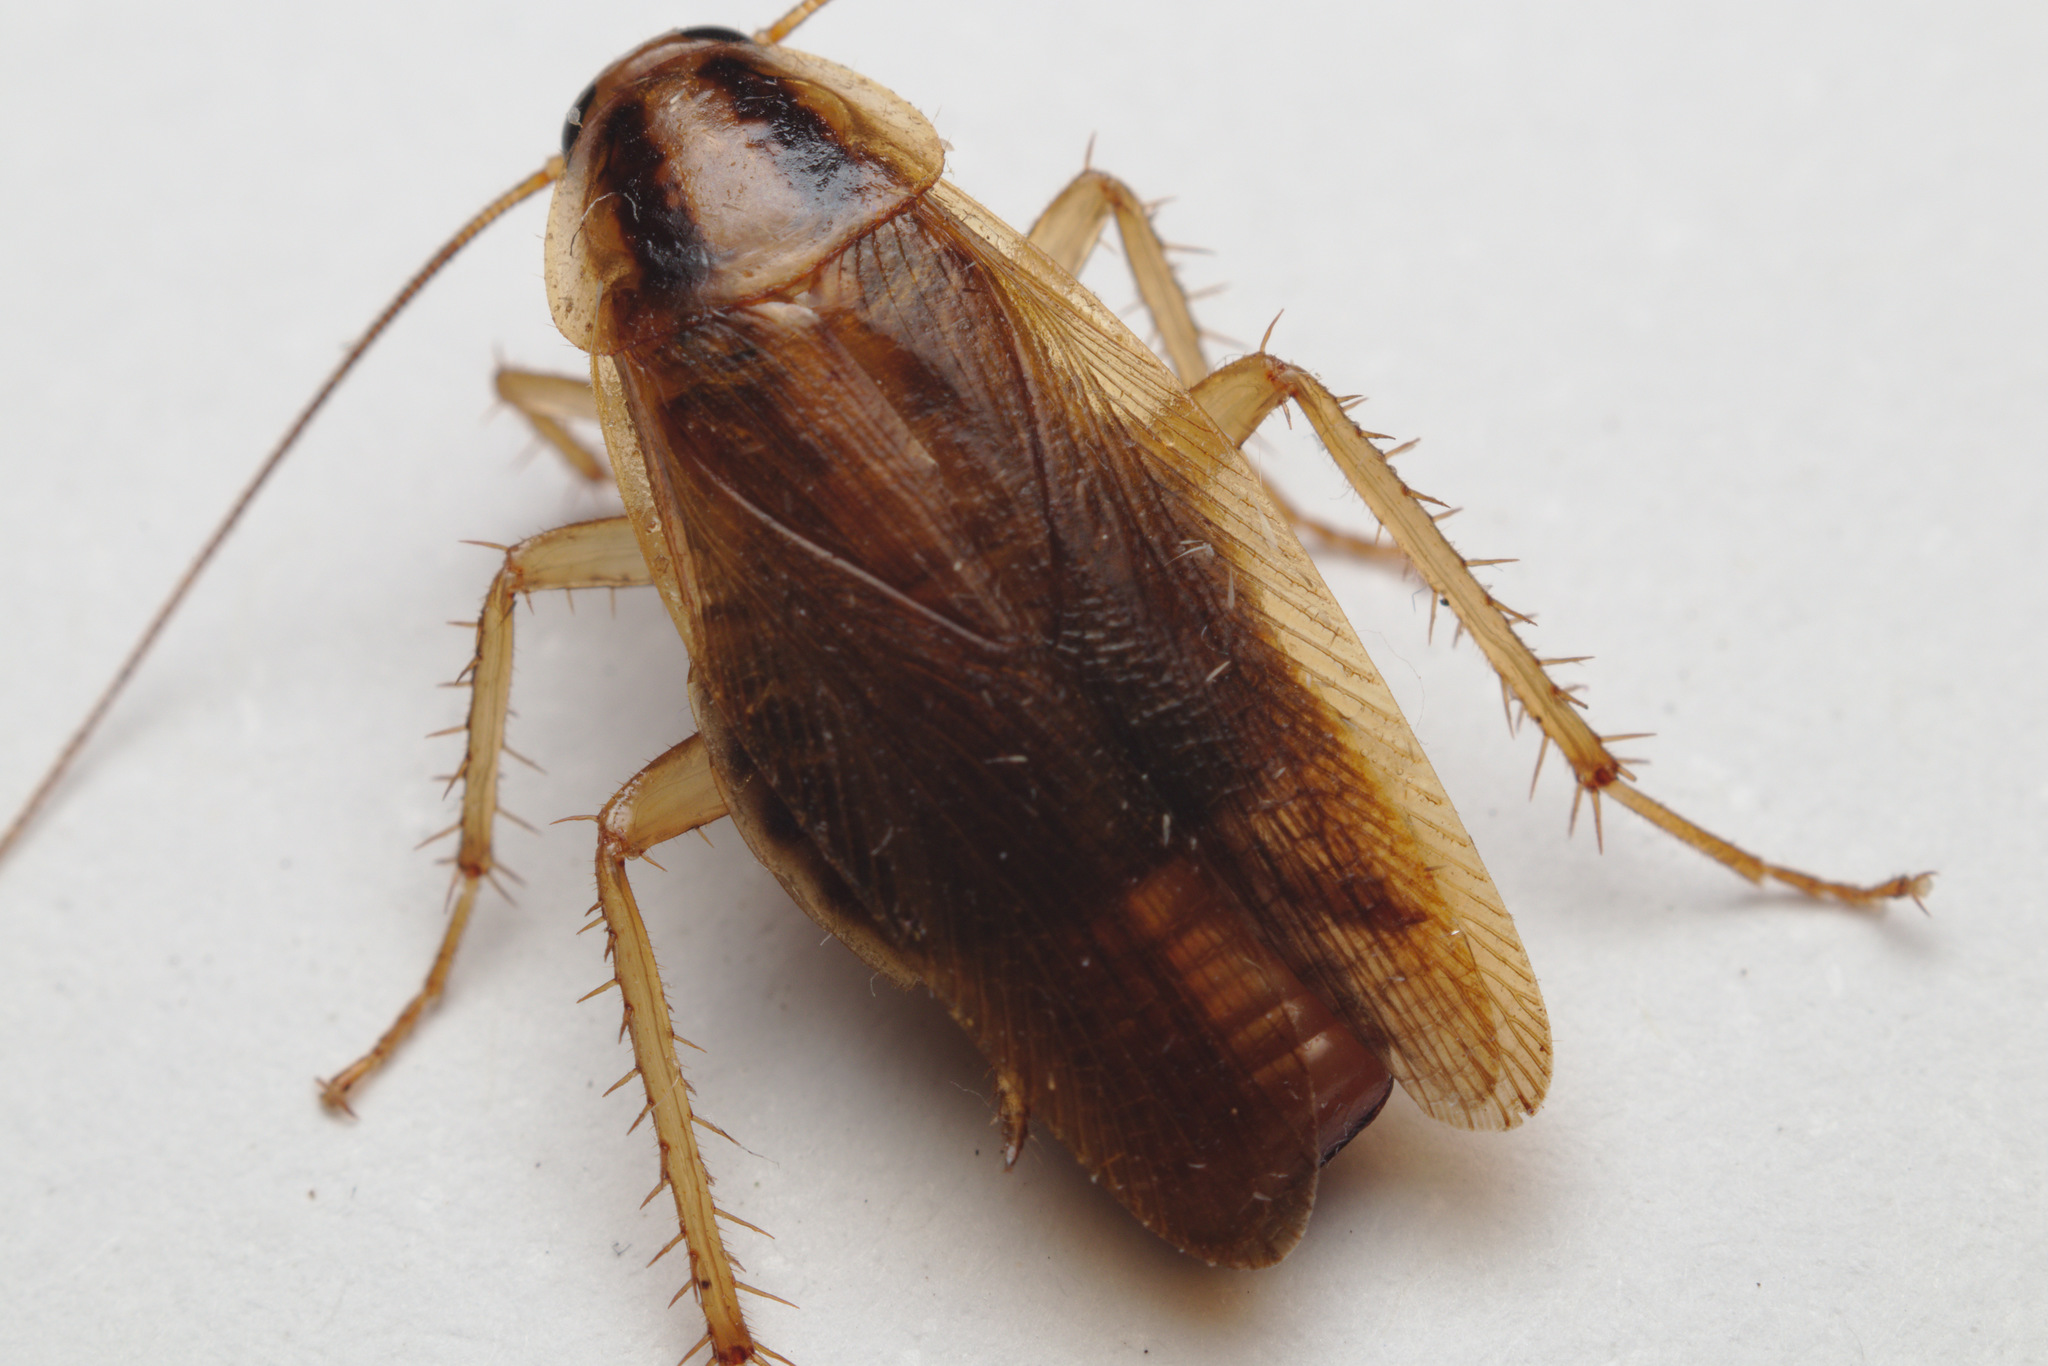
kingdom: Animalia
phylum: Arthropoda
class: Insecta
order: Blattodea
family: Ectobiidae
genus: Blattella
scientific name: Blattella germanica
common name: German cockroach
